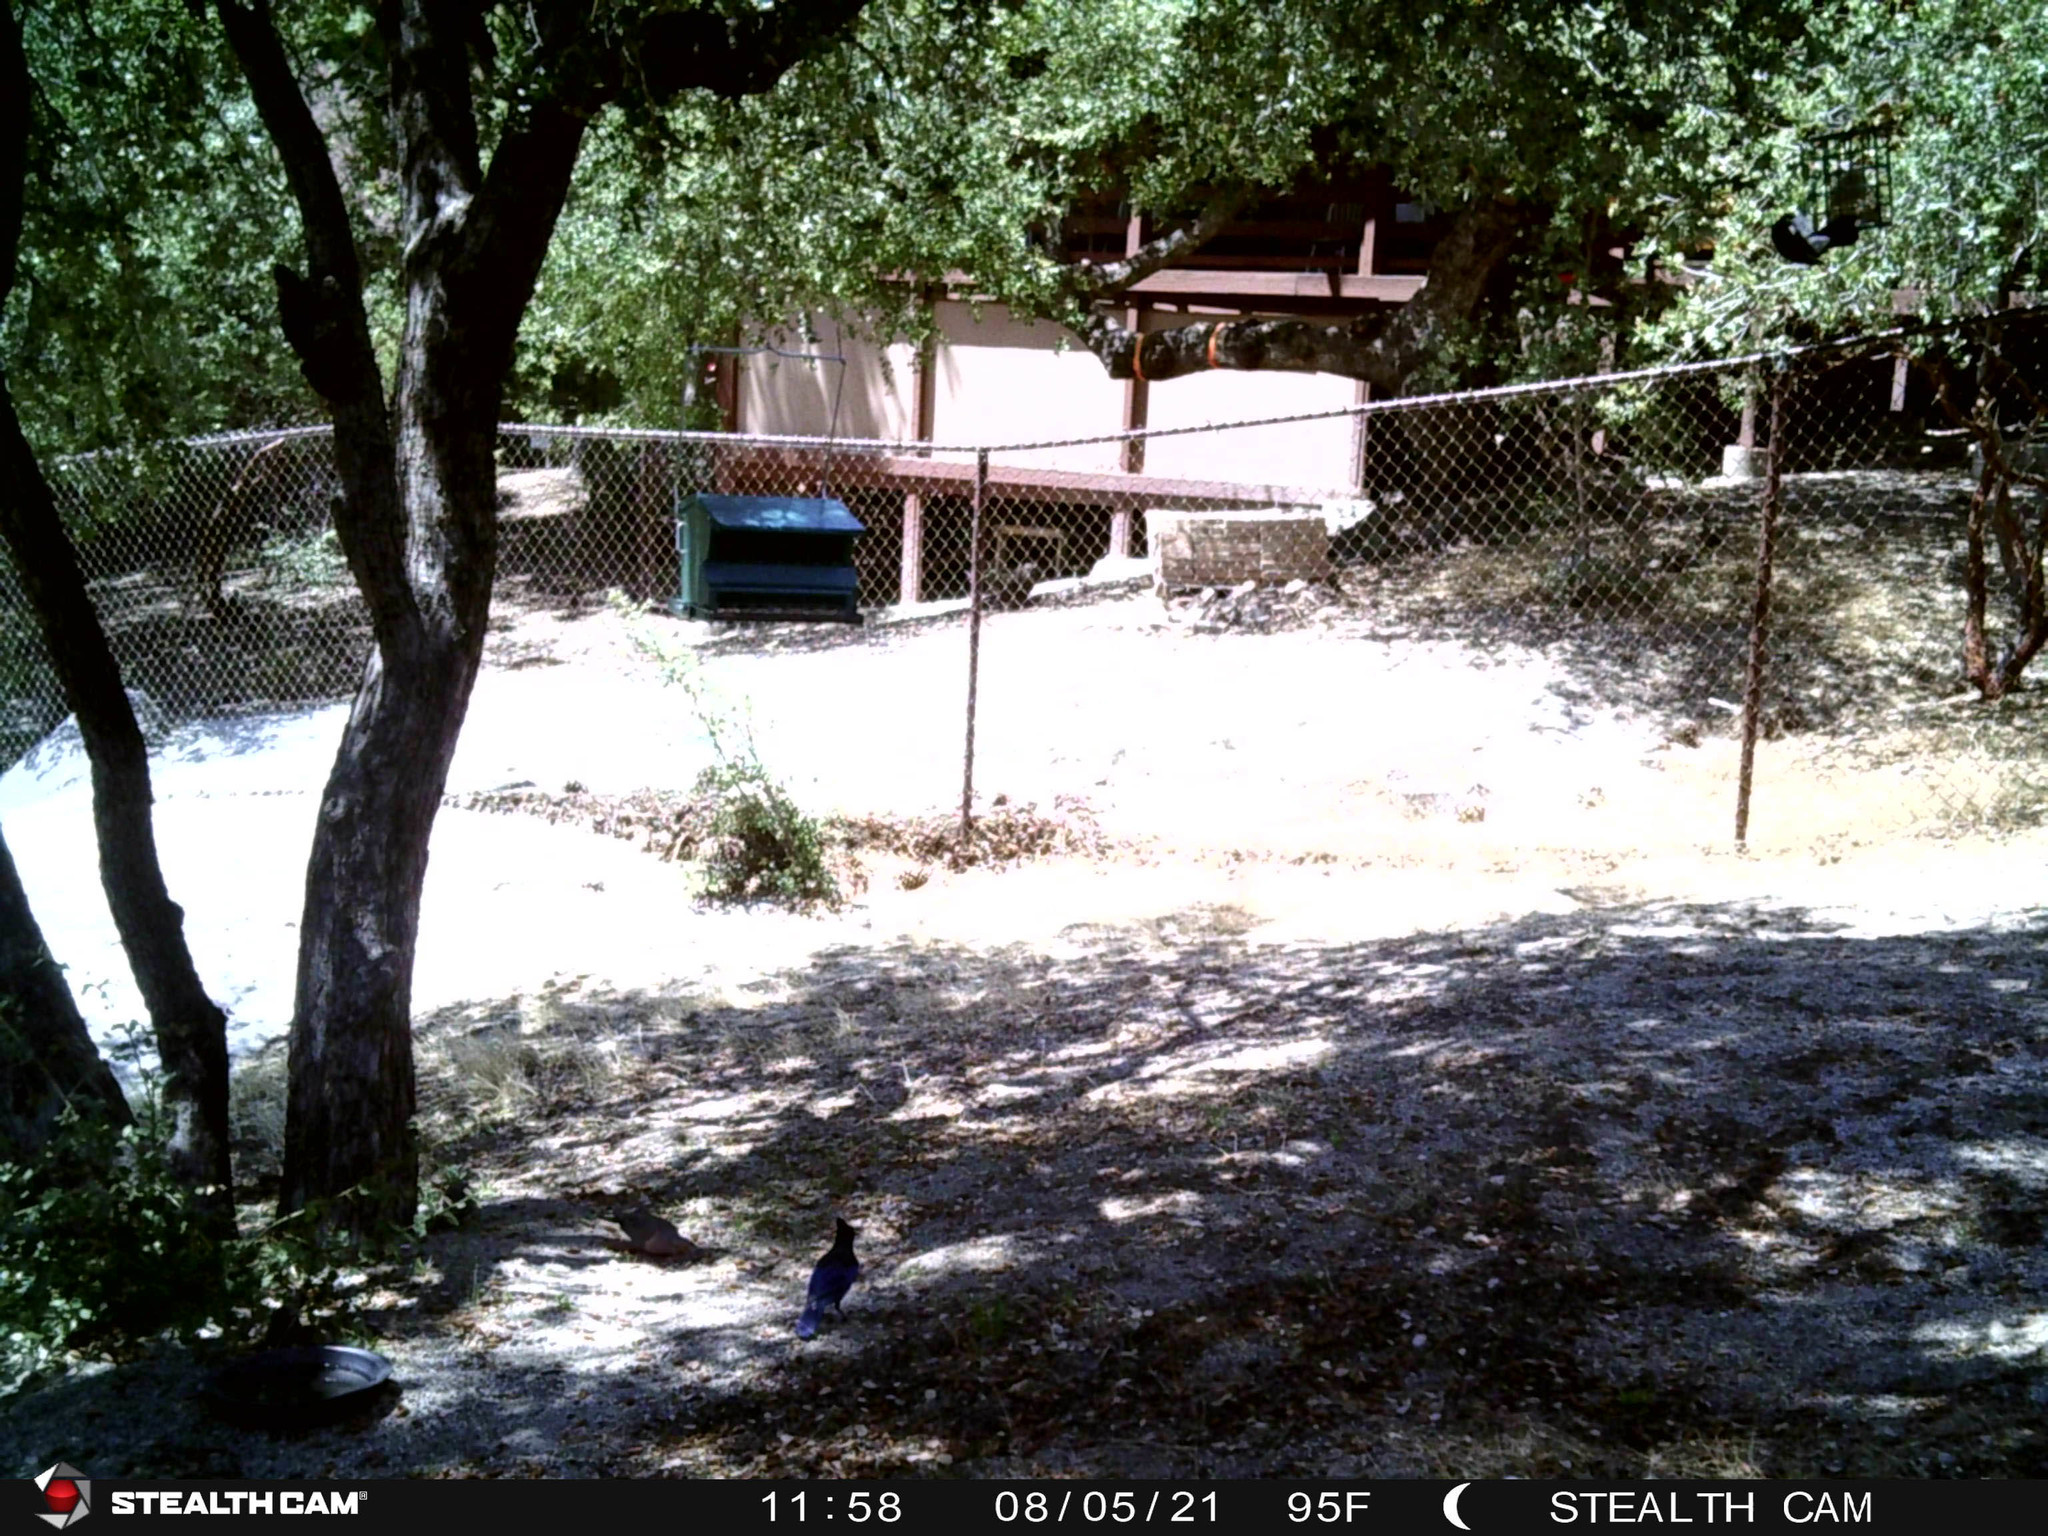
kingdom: Animalia
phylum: Chordata
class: Aves
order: Piciformes
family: Picidae
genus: Melanerpes
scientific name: Melanerpes formicivorus
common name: Acorn woodpecker
